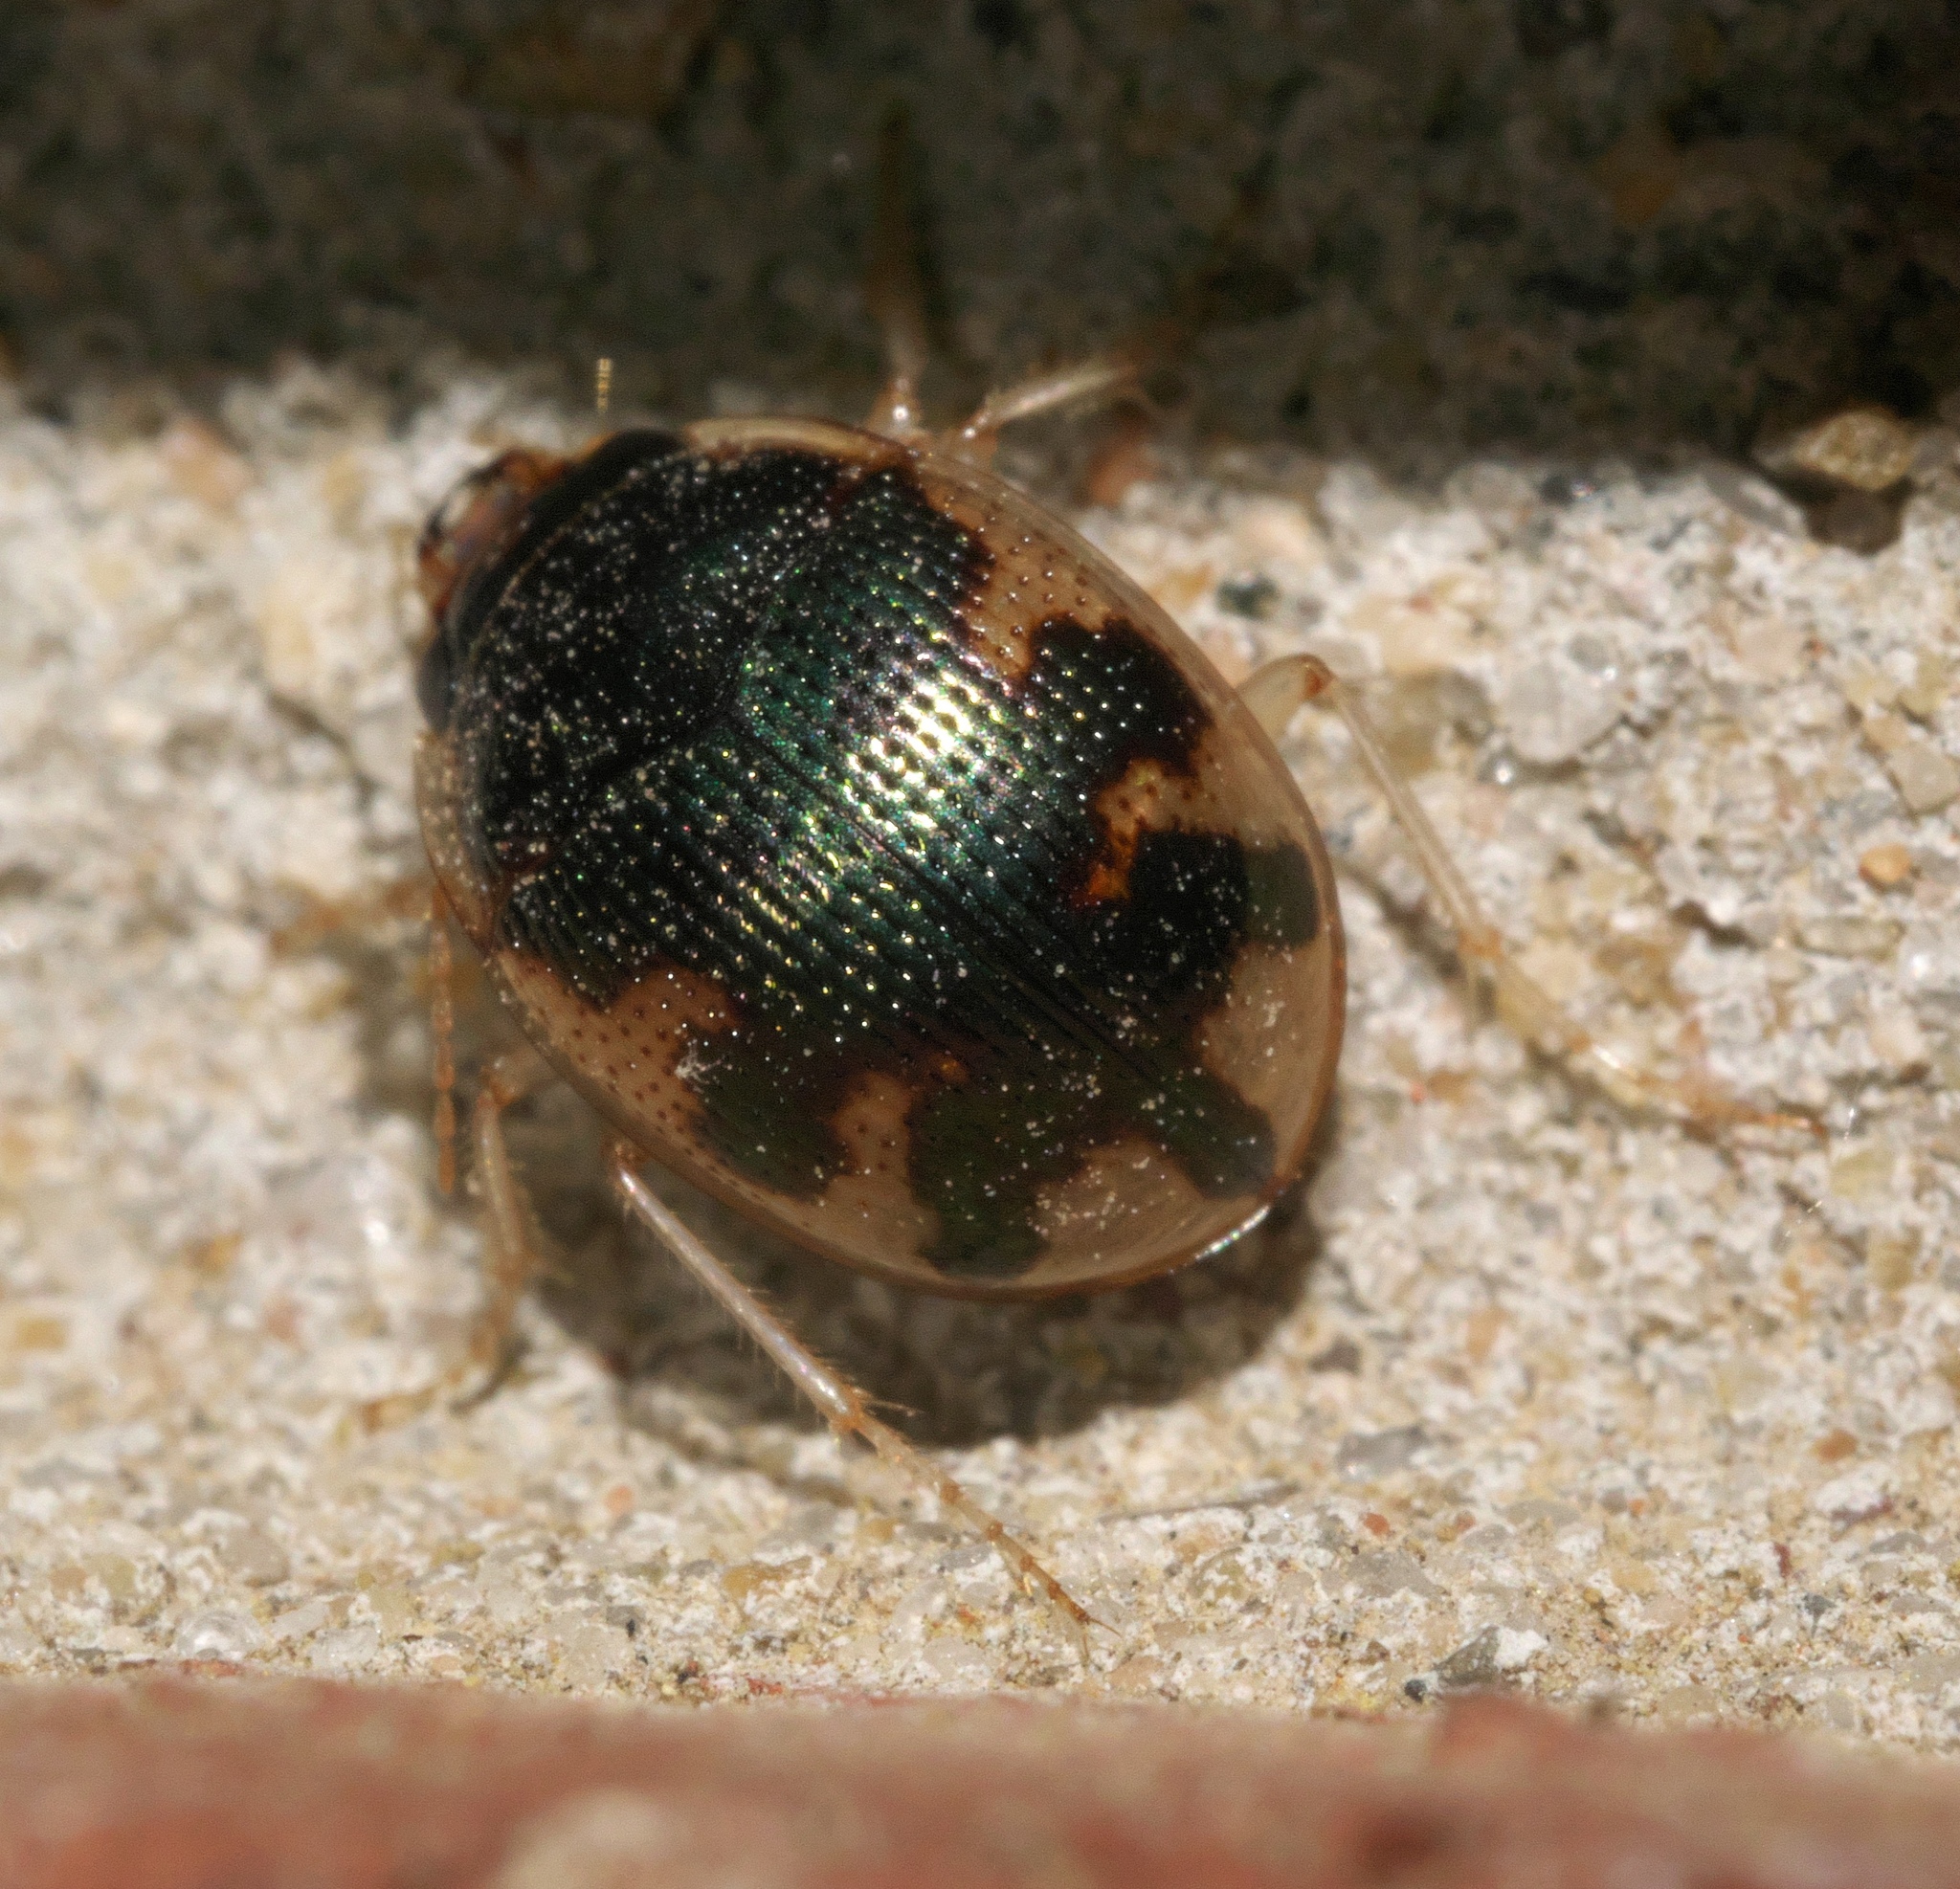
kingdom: Animalia
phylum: Arthropoda
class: Insecta
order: Coleoptera
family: Carabidae
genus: Omophron
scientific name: Omophron nitidum
